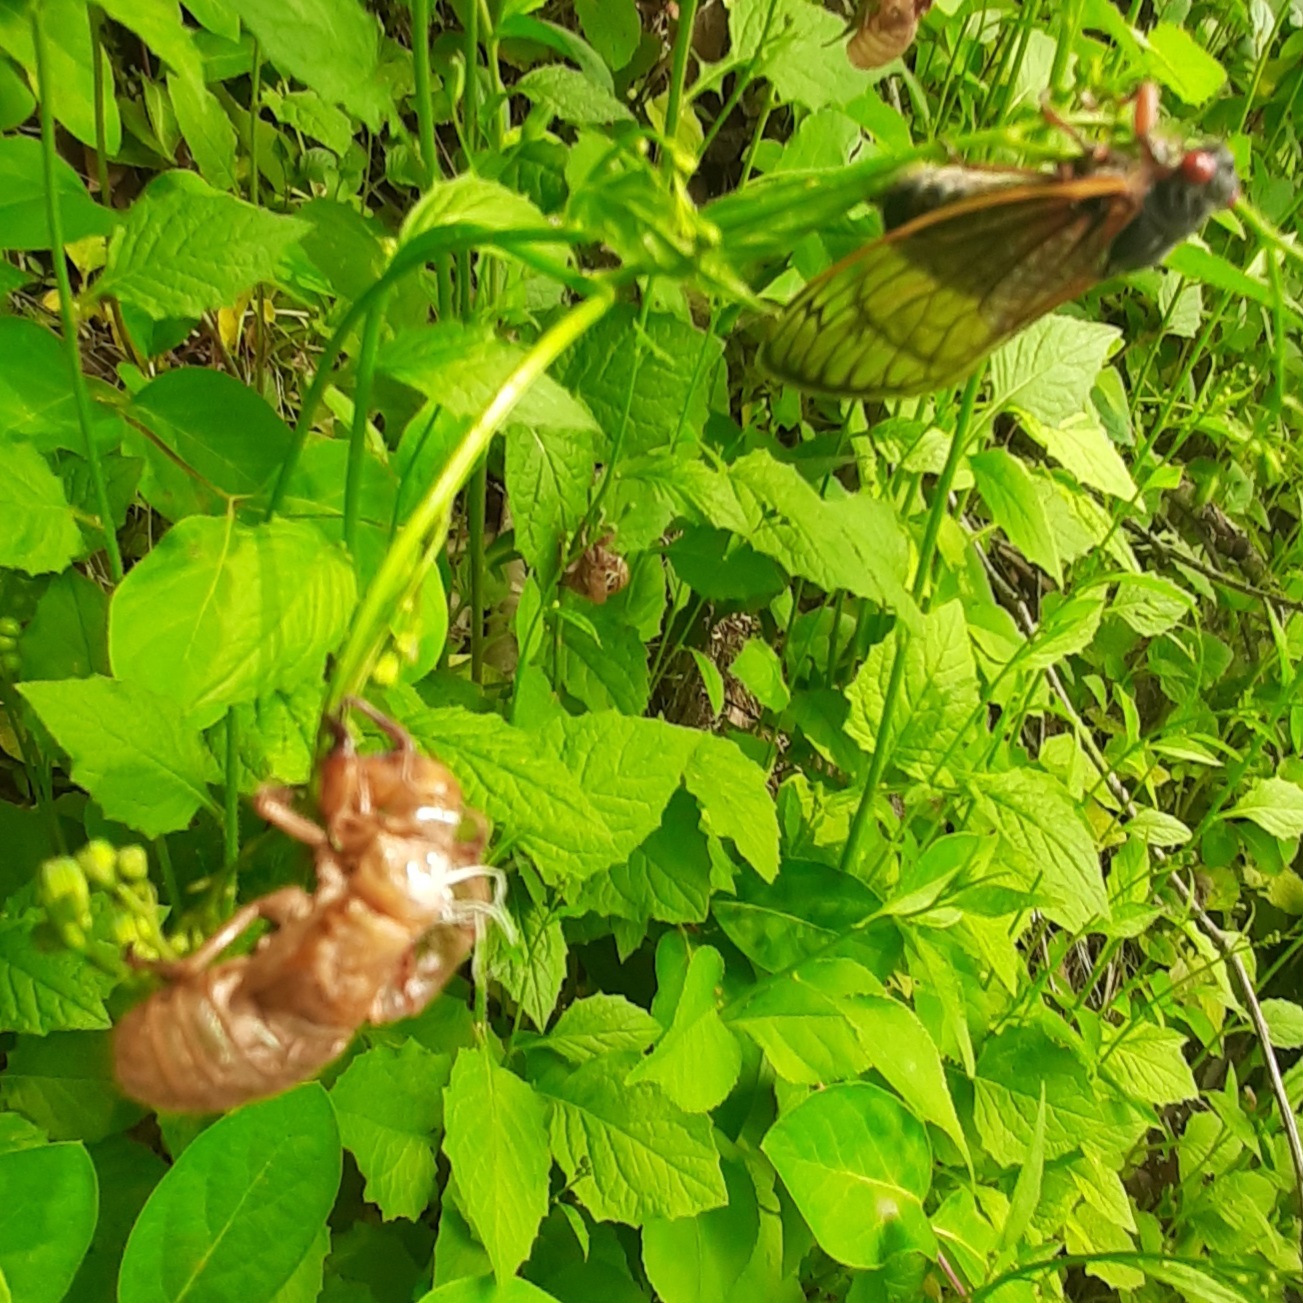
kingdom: Animalia
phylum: Arthropoda
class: Insecta
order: Hemiptera
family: Cicadidae
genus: Magicicada
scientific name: Magicicada
